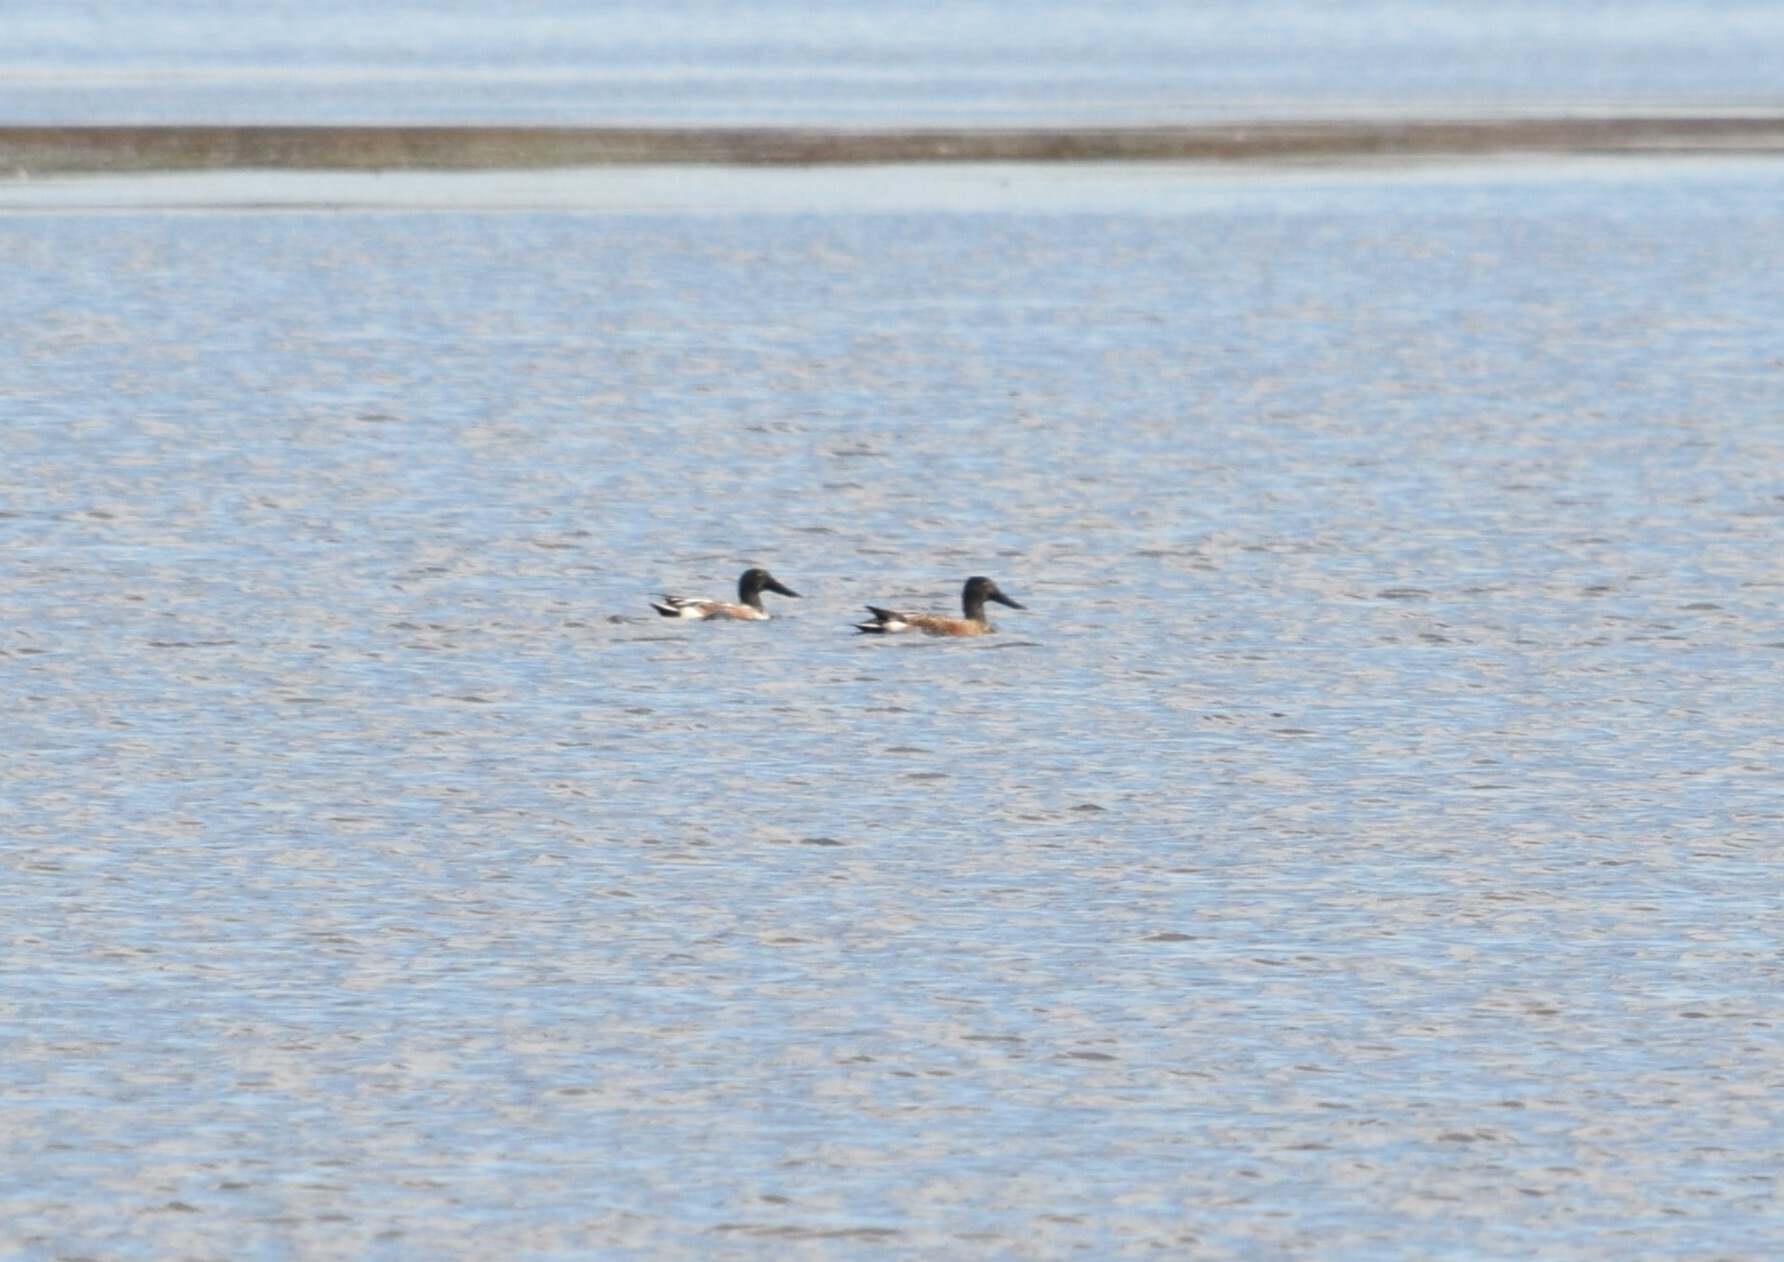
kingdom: Animalia
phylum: Chordata
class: Aves
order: Anseriformes
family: Anatidae
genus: Spatula
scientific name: Spatula clypeata
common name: Northern shoveler
